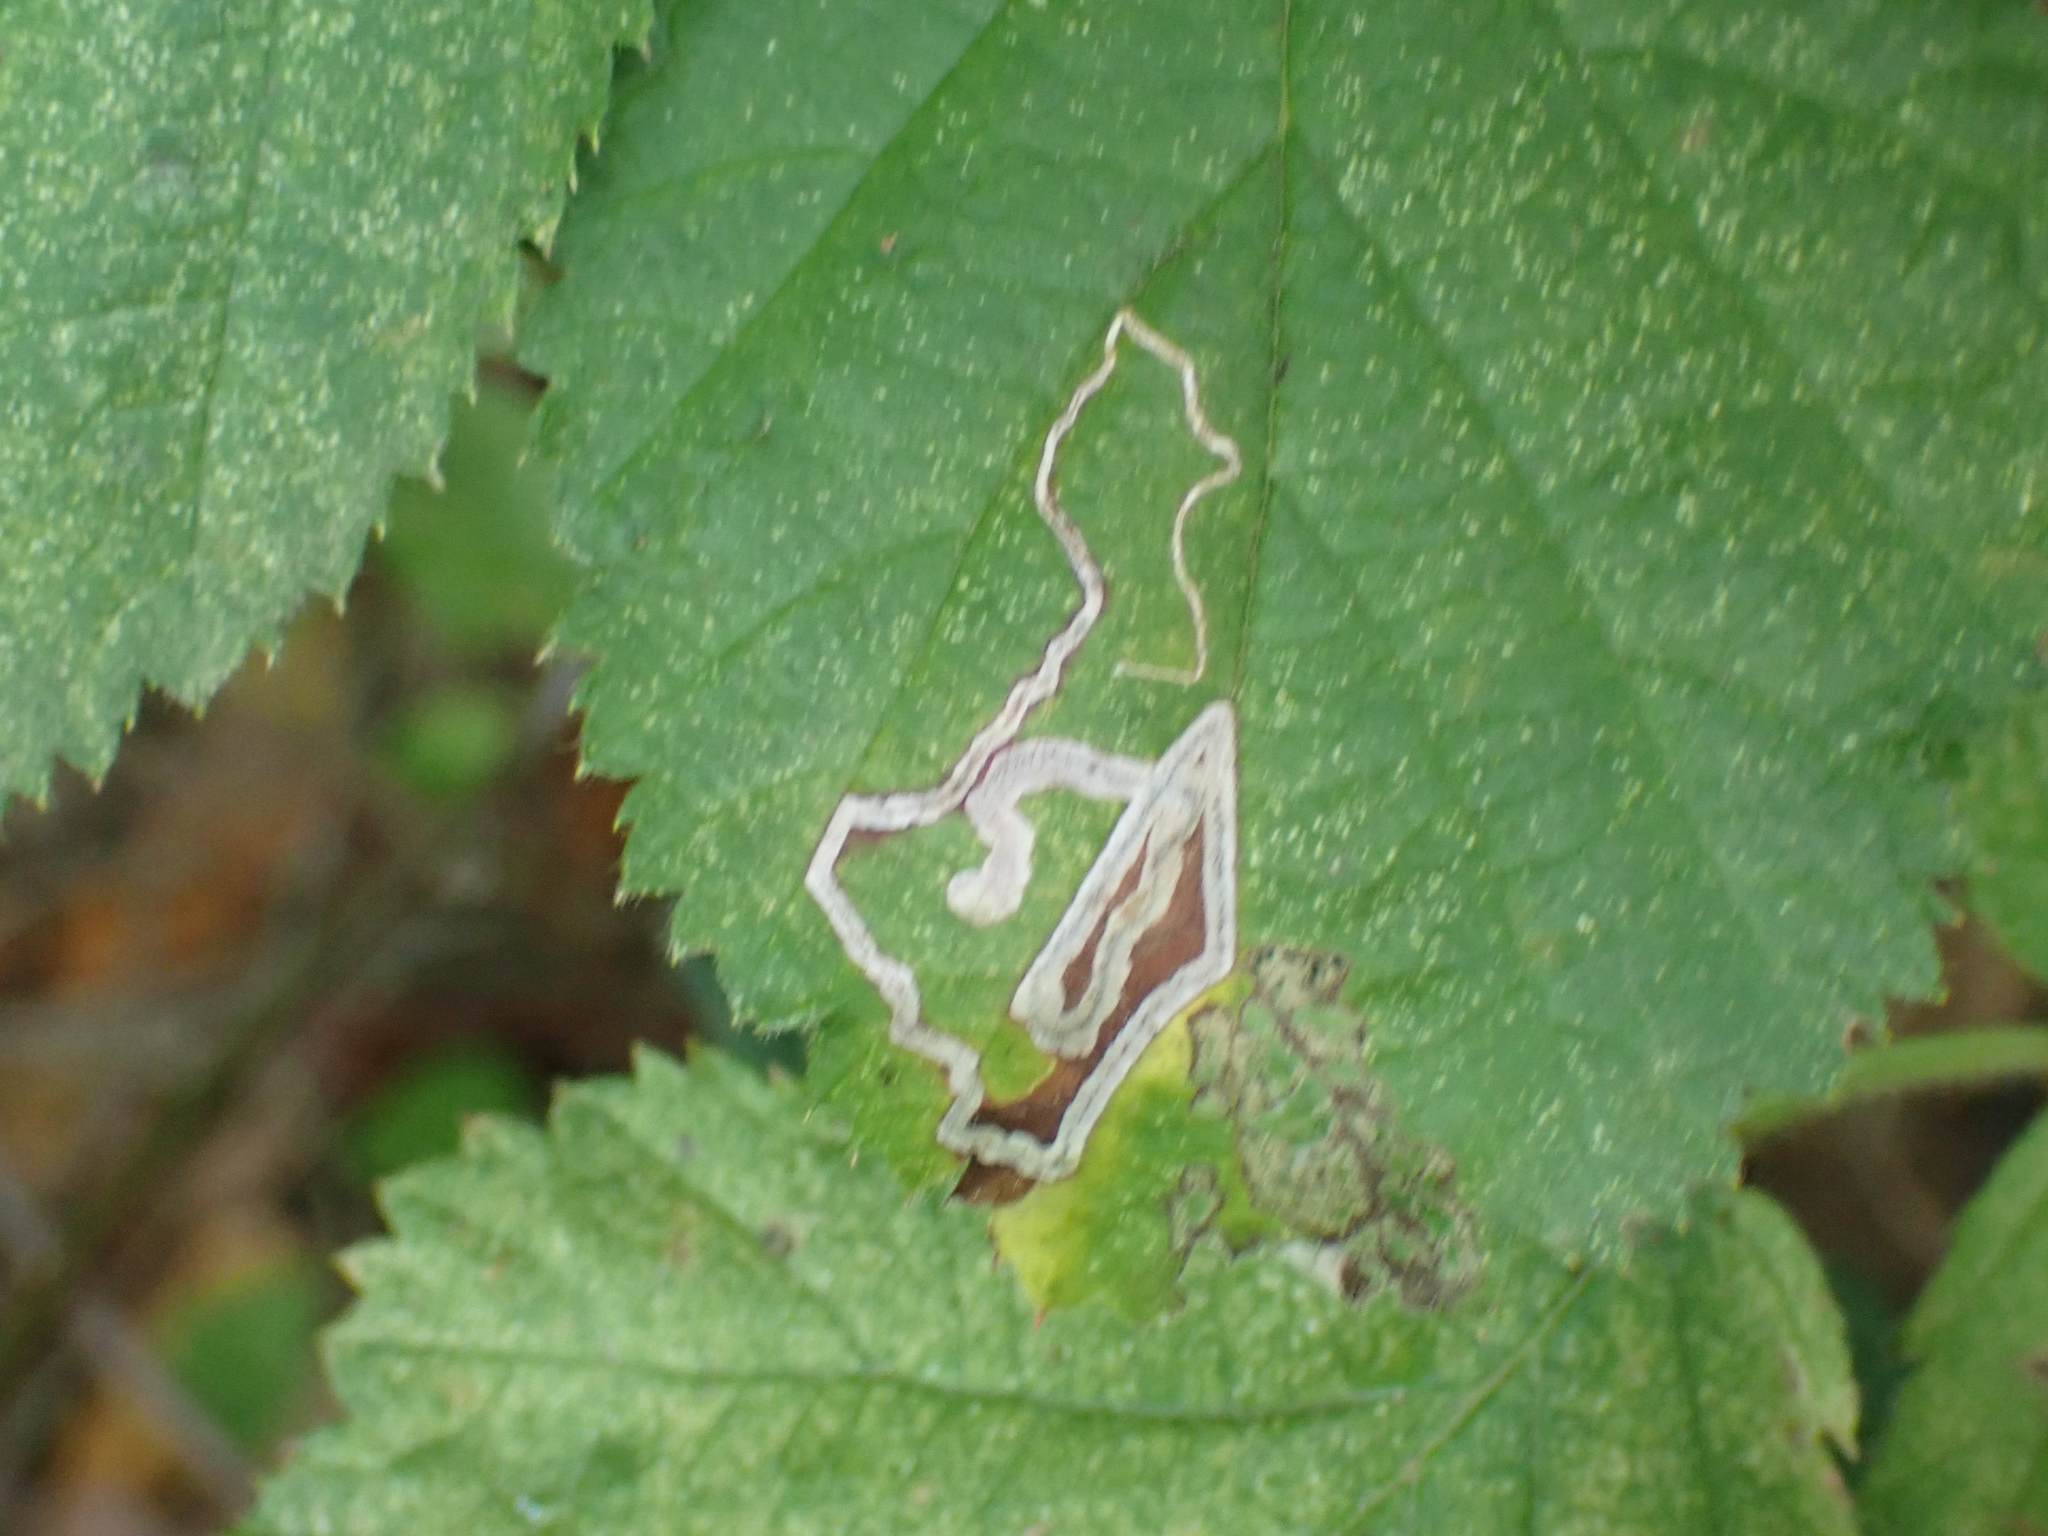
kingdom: Animalia
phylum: Arthropoda
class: Insecta
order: Lepidoptera
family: Nepticulidae
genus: Stigmella
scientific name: Stigmella villosella
